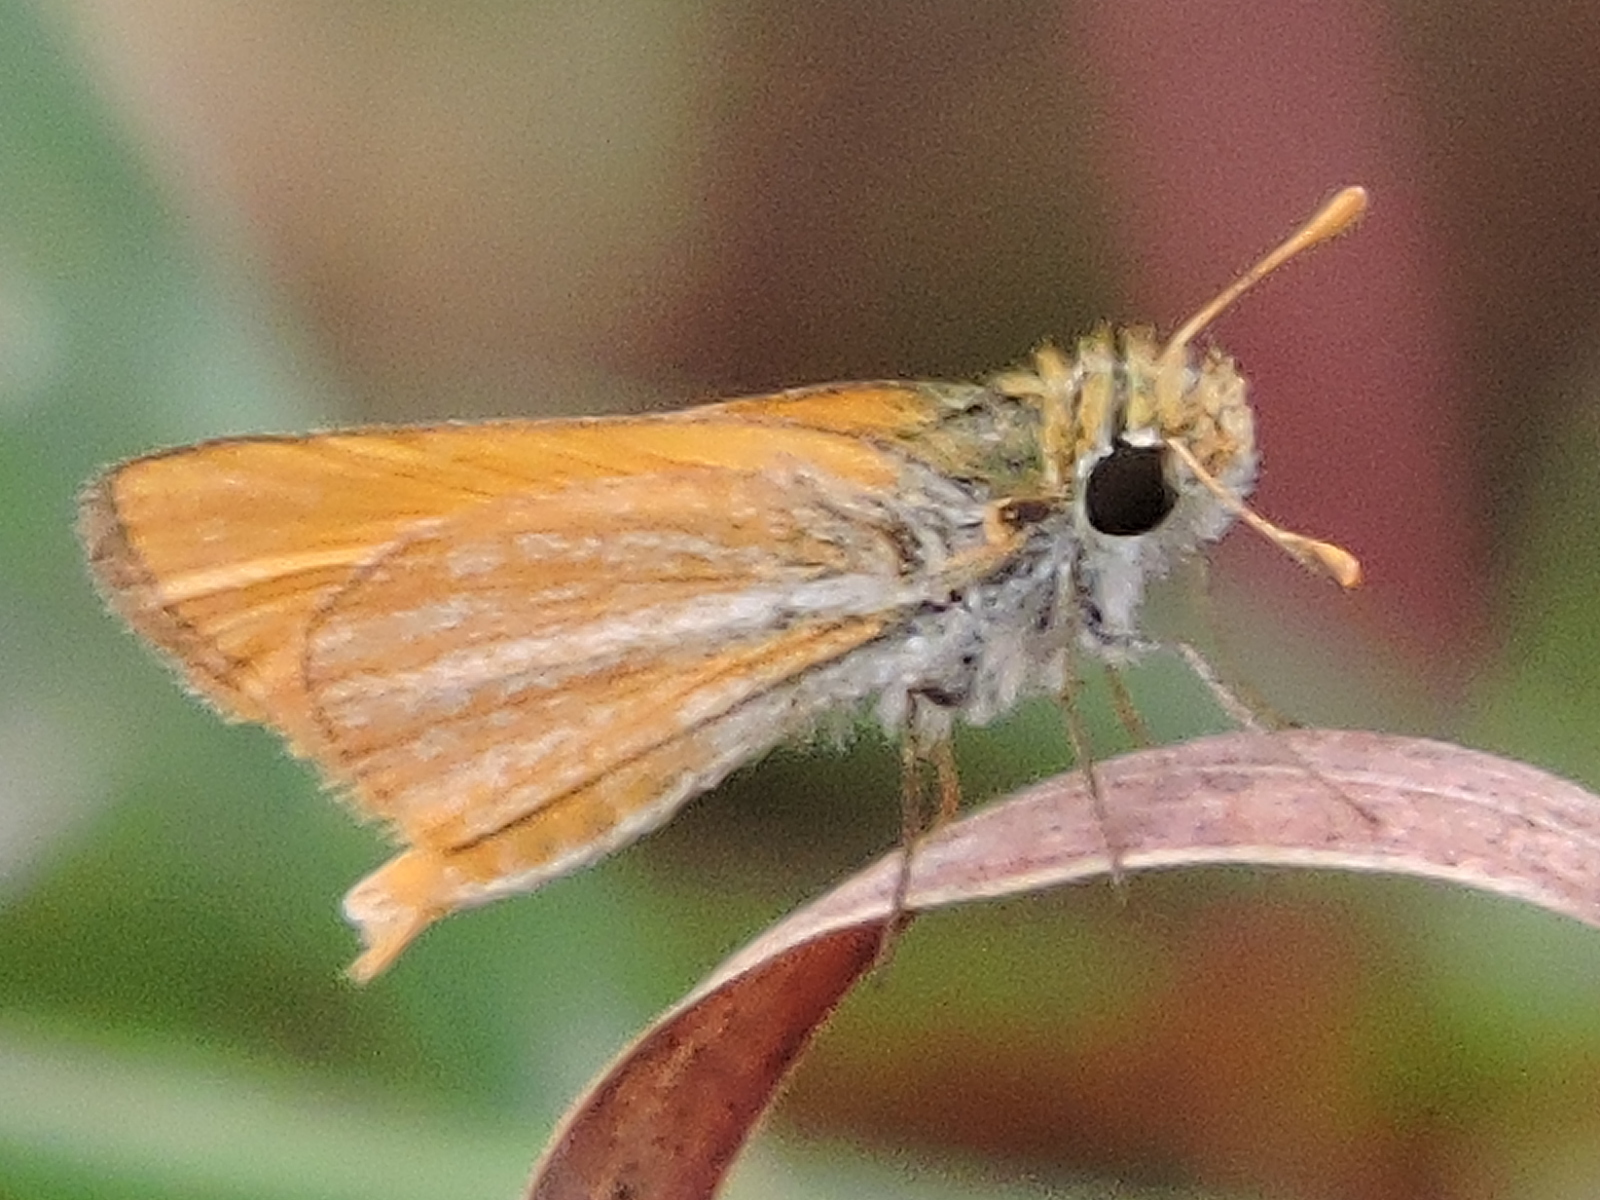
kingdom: Animalia
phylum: Arthropoda
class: Insecta
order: Lepidoptera
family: Hesperiidae
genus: Copaeodes
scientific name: Copaeodes minima
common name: Southern skipperling
